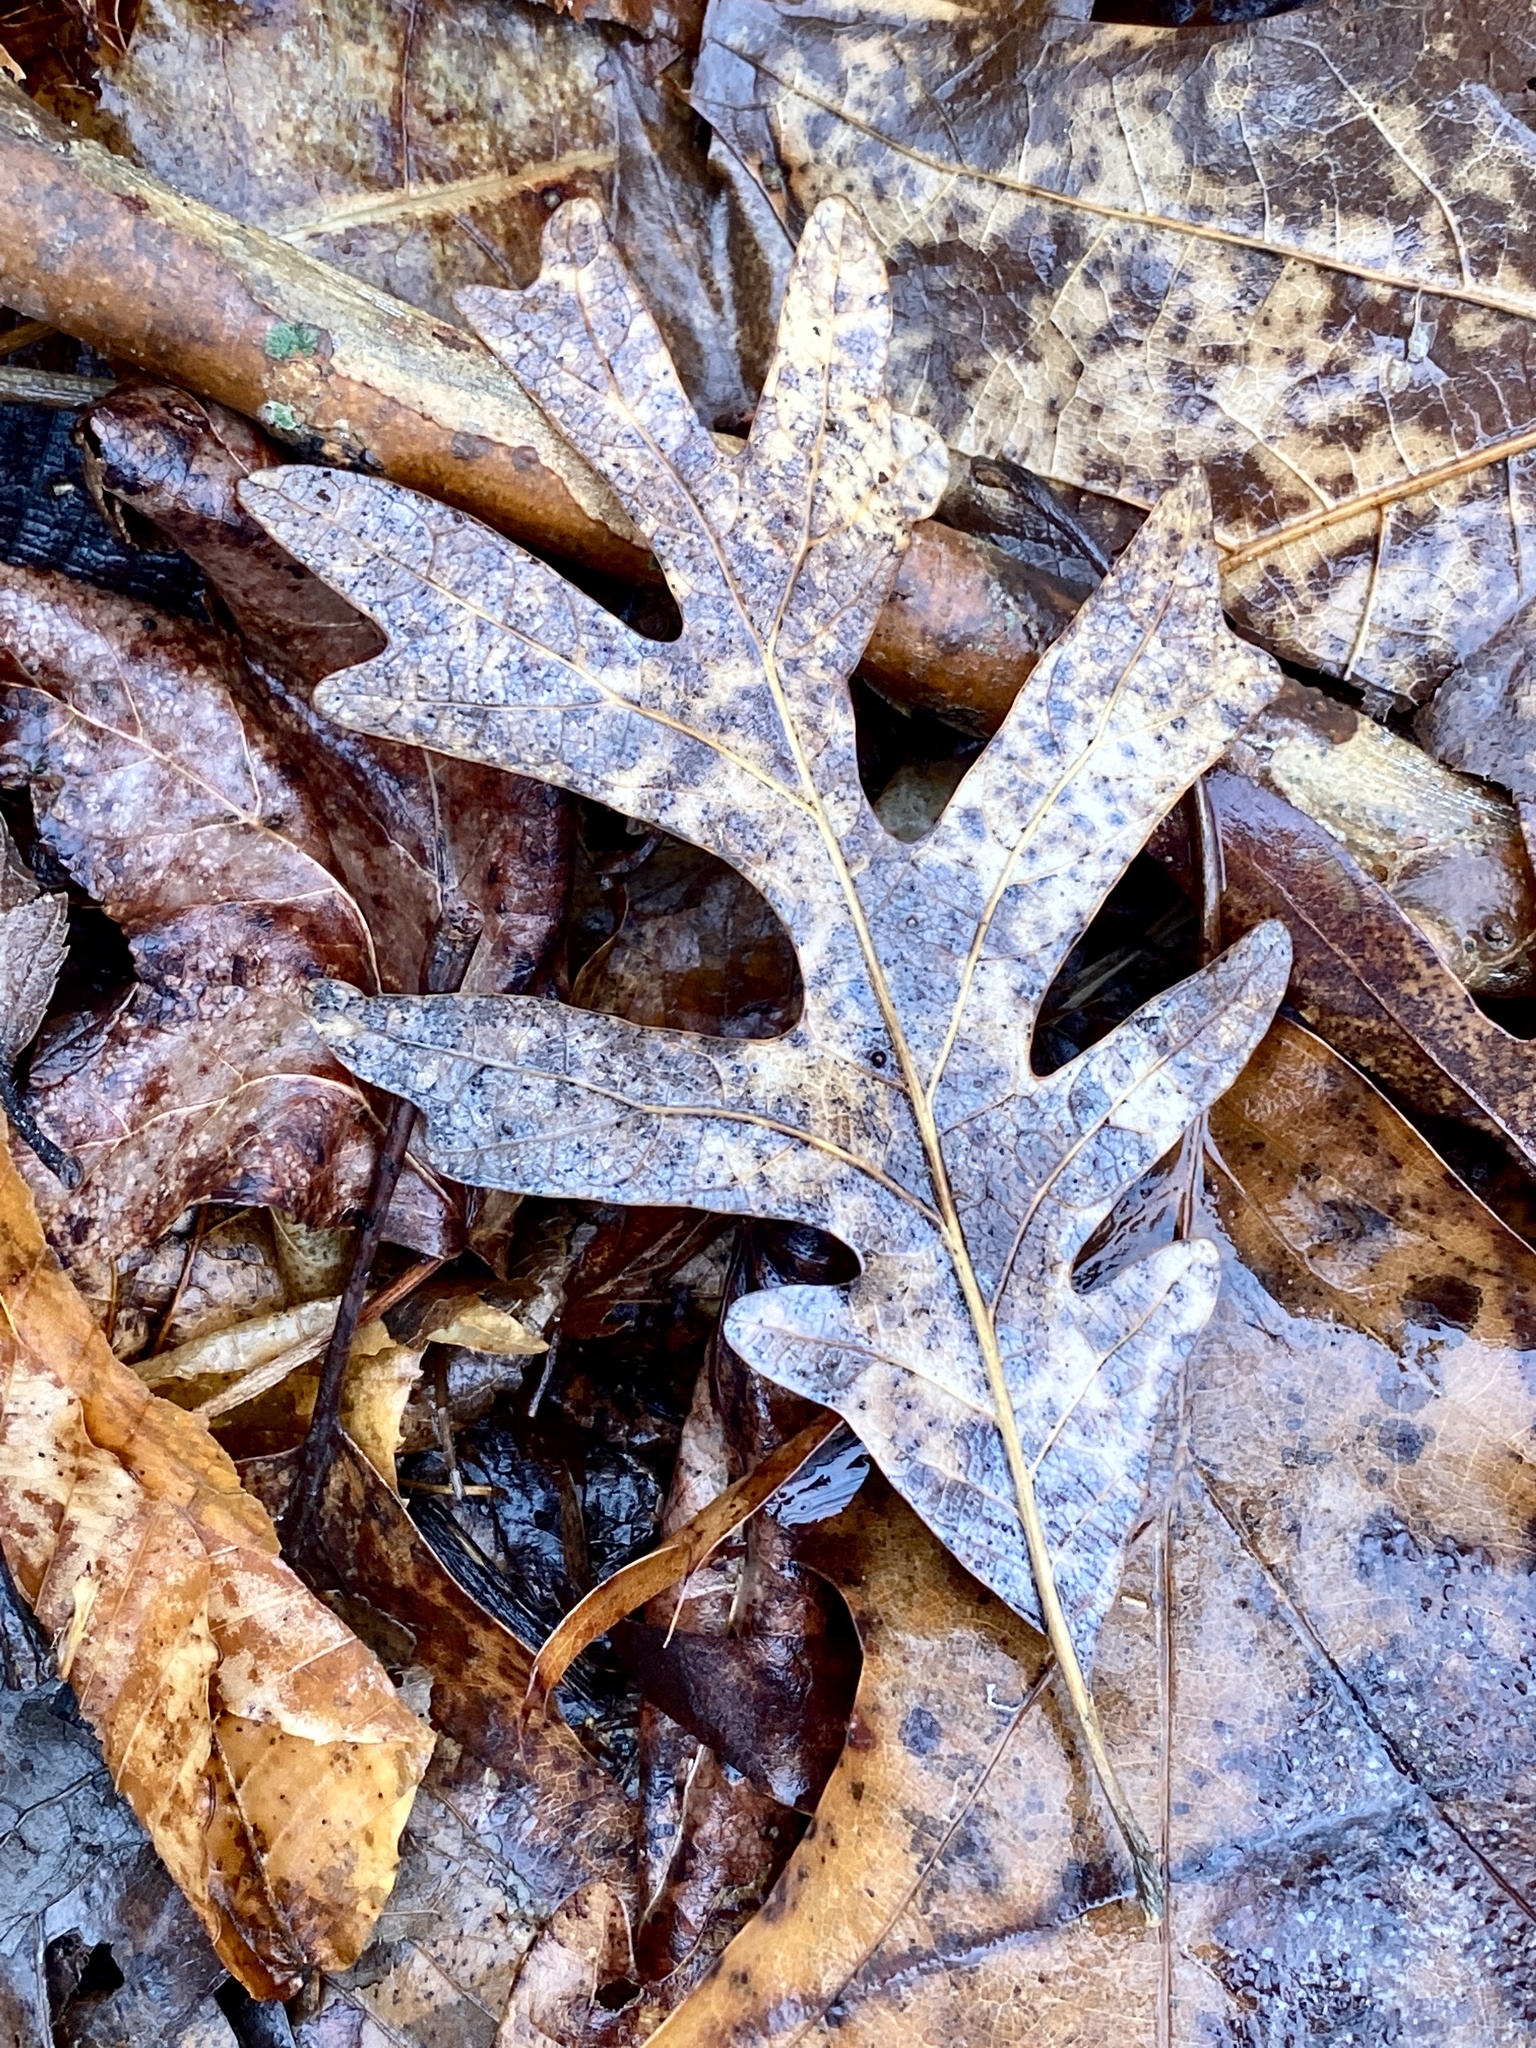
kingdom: Plantae
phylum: Tracheophyta
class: Magnoliopsida
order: Fagales
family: Fagaceae
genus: Quercus
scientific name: Quercus alba
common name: White oak
